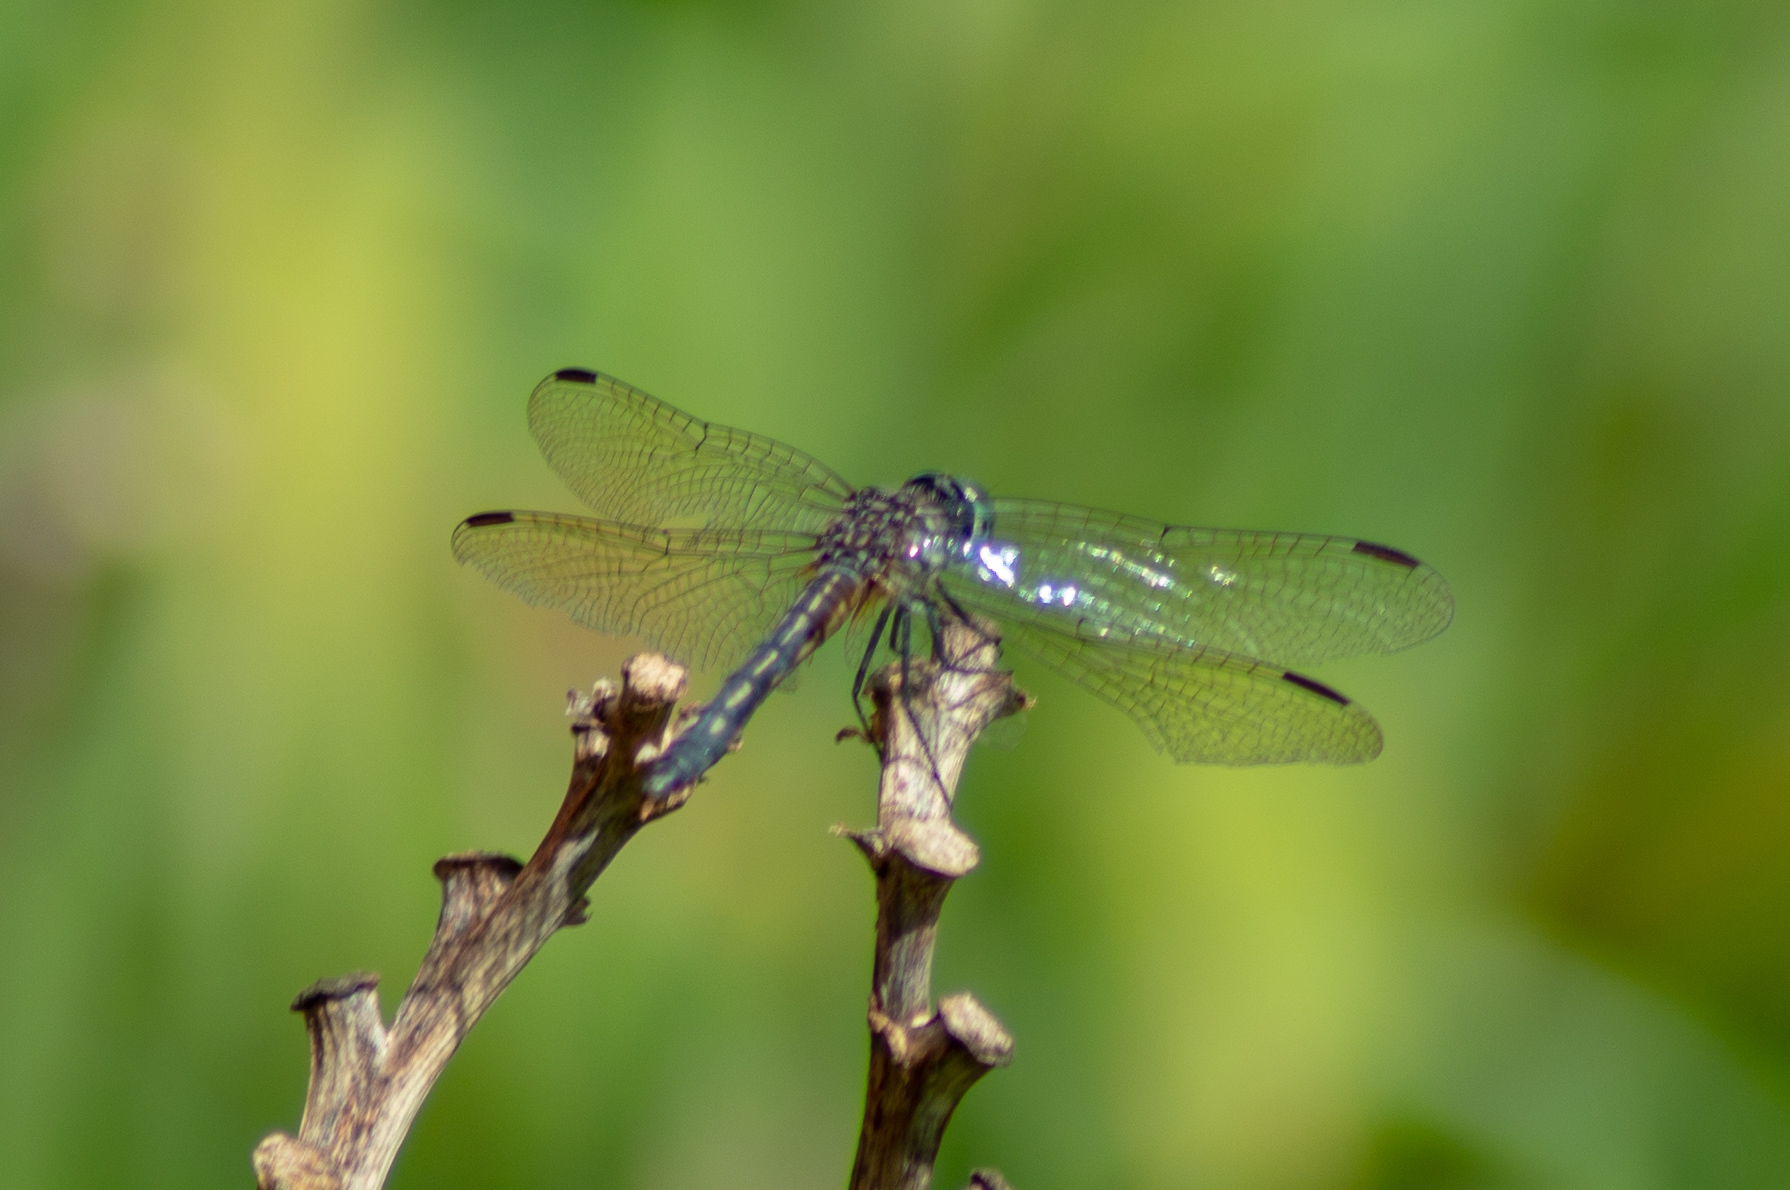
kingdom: Animalia
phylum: Arthropoda
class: Insecta
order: Odonata
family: Libellulidae
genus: Pachydiplax
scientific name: Pachydiplax longipennis
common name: Blue dasher
